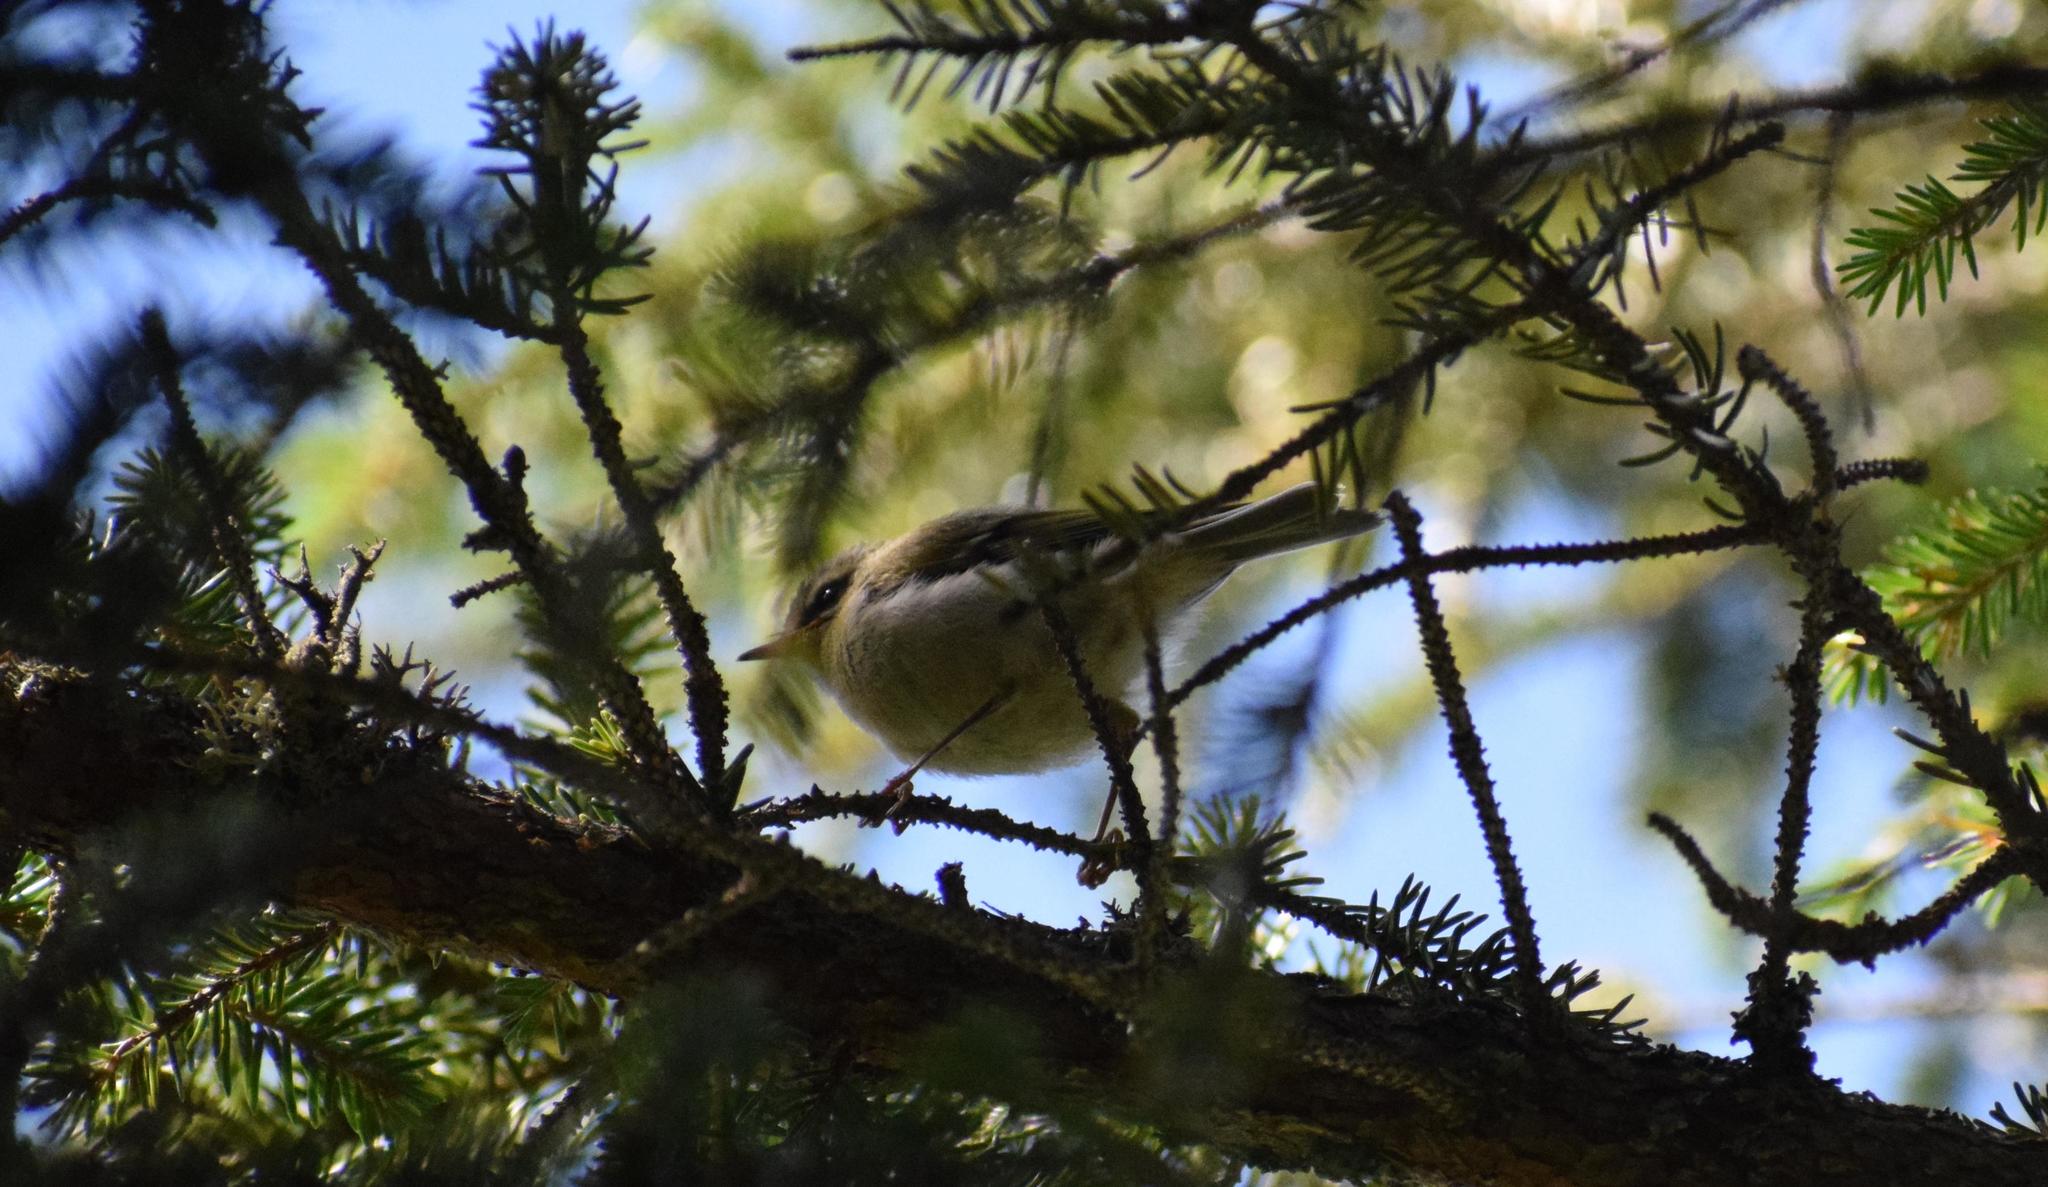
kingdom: Animalia
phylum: Chordata
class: Aves
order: Passeriformes
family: Regulidae
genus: Regulus
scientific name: Regulus regulus
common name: Goldcrest
